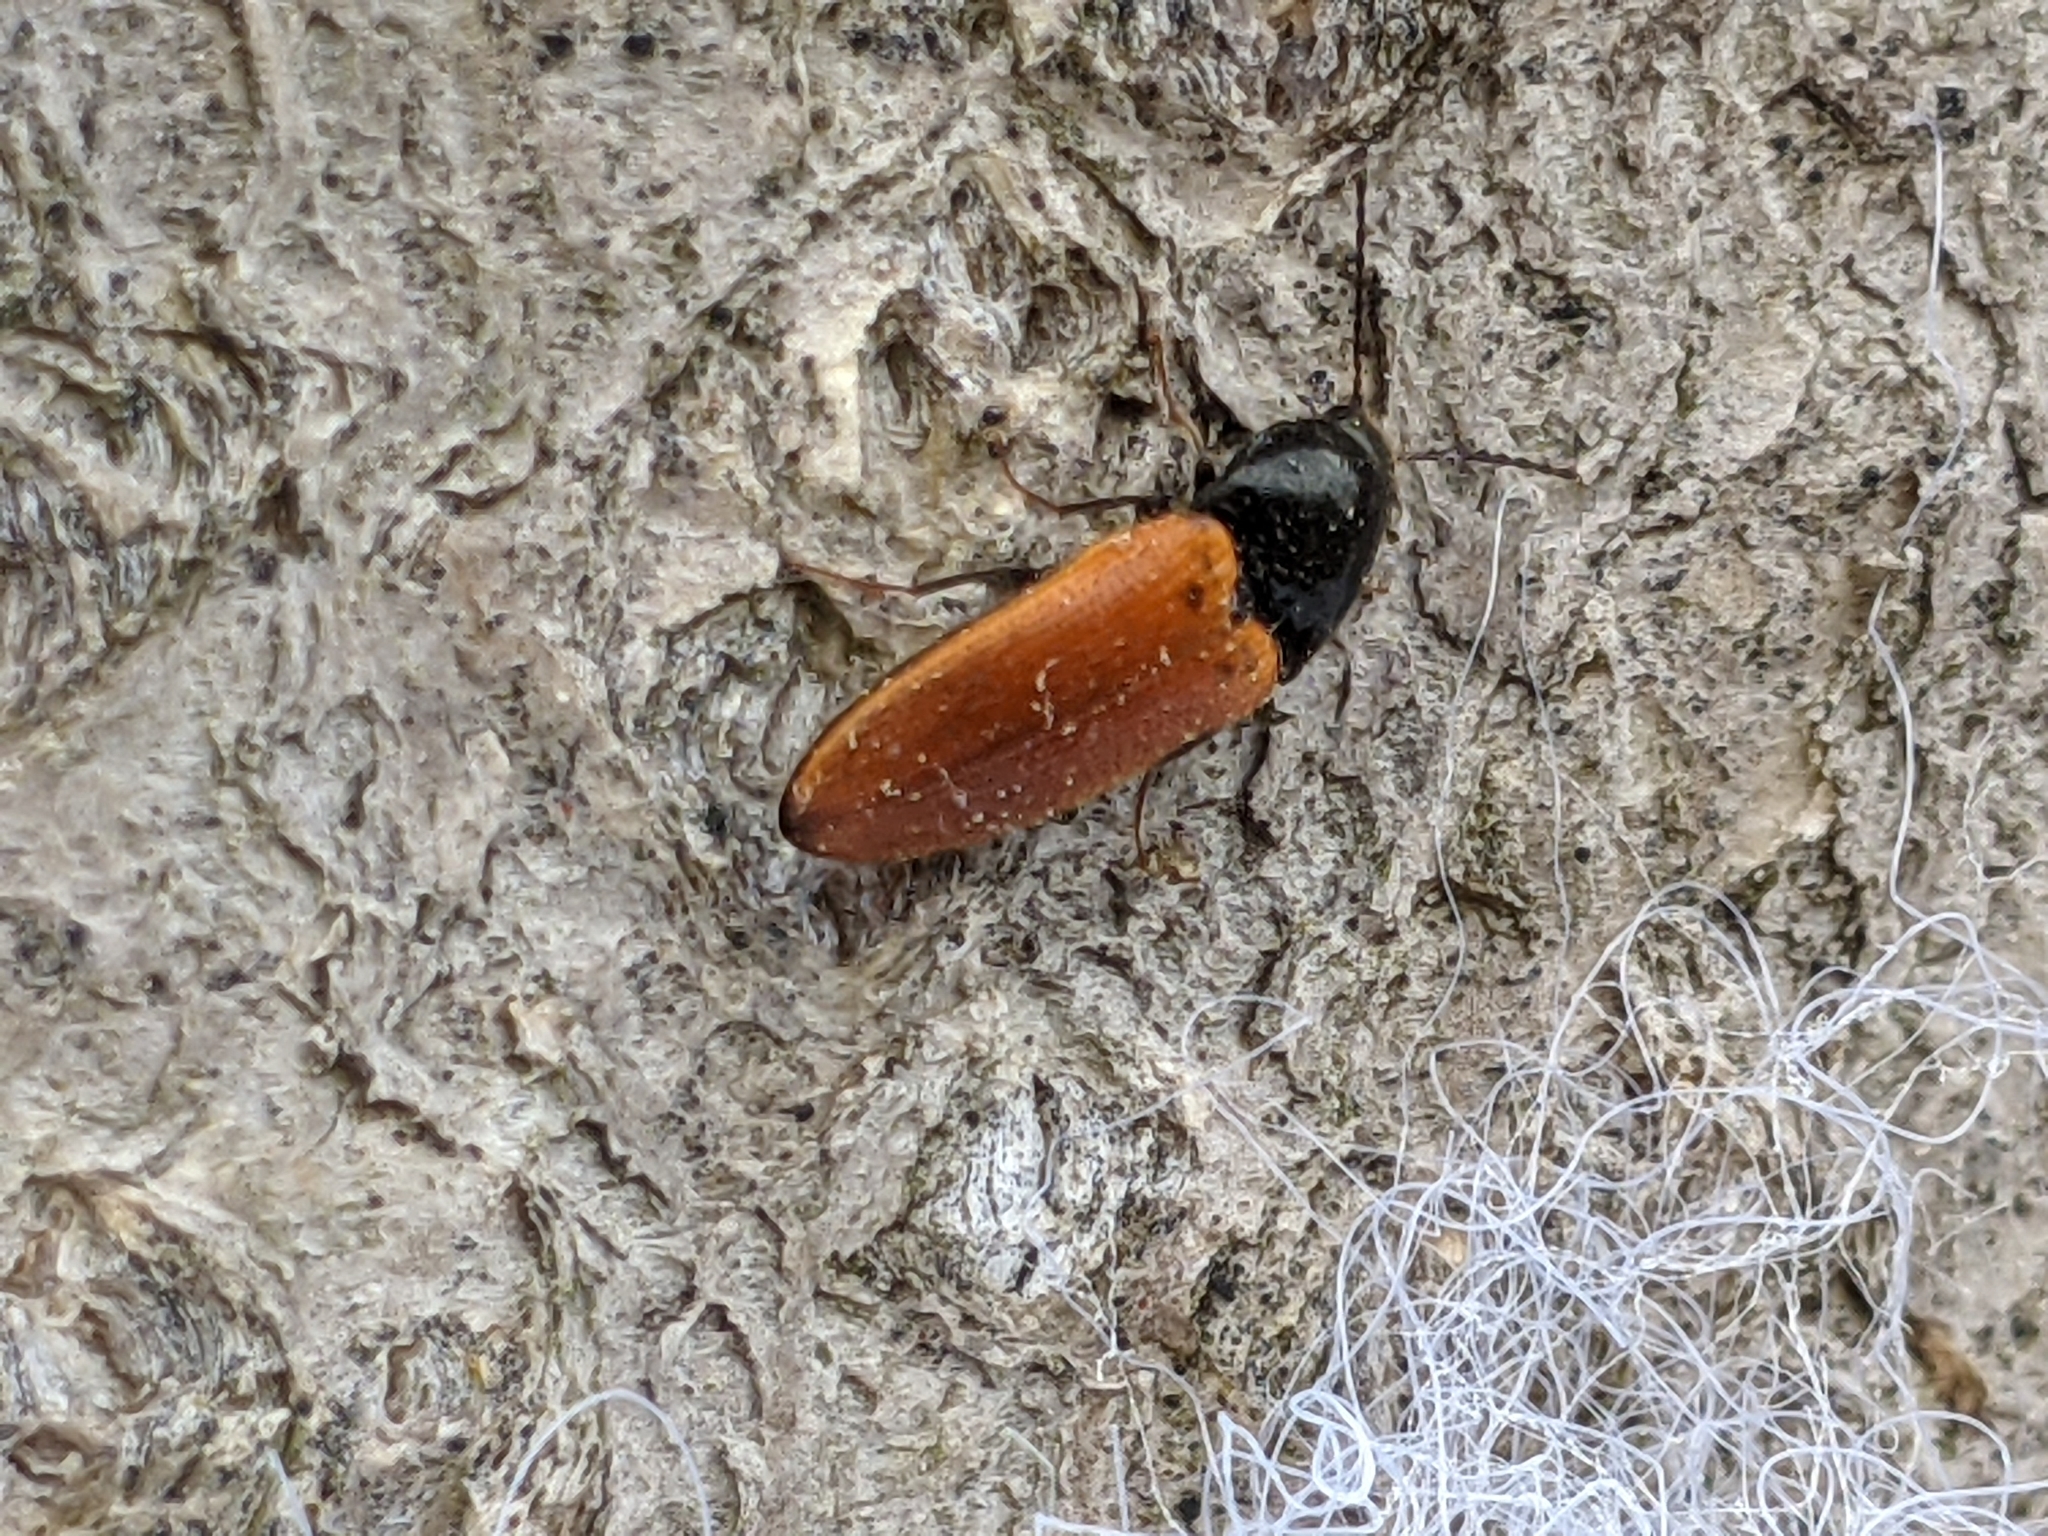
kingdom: Animalia
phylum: Arthropoda
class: Insecta
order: Coleoptera
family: Elateridae
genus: Ampedus
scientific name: Ampedus sanguinipennis
